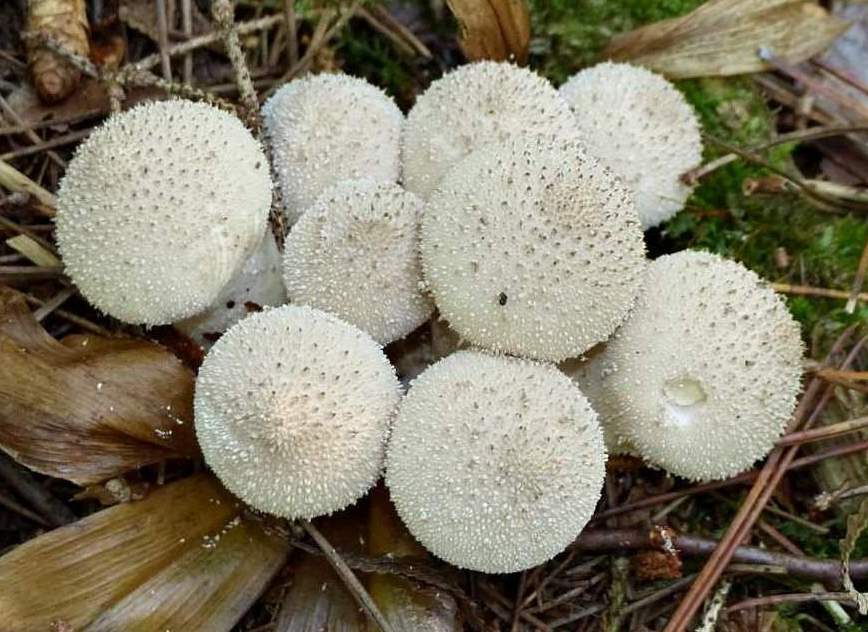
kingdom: Fungi
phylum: Basidiomycota
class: Agaricomycetes
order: Agaricales
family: Lycoperdaceae
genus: Lycoperdon
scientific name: Lycoperdon perlatum
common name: Common puffball
